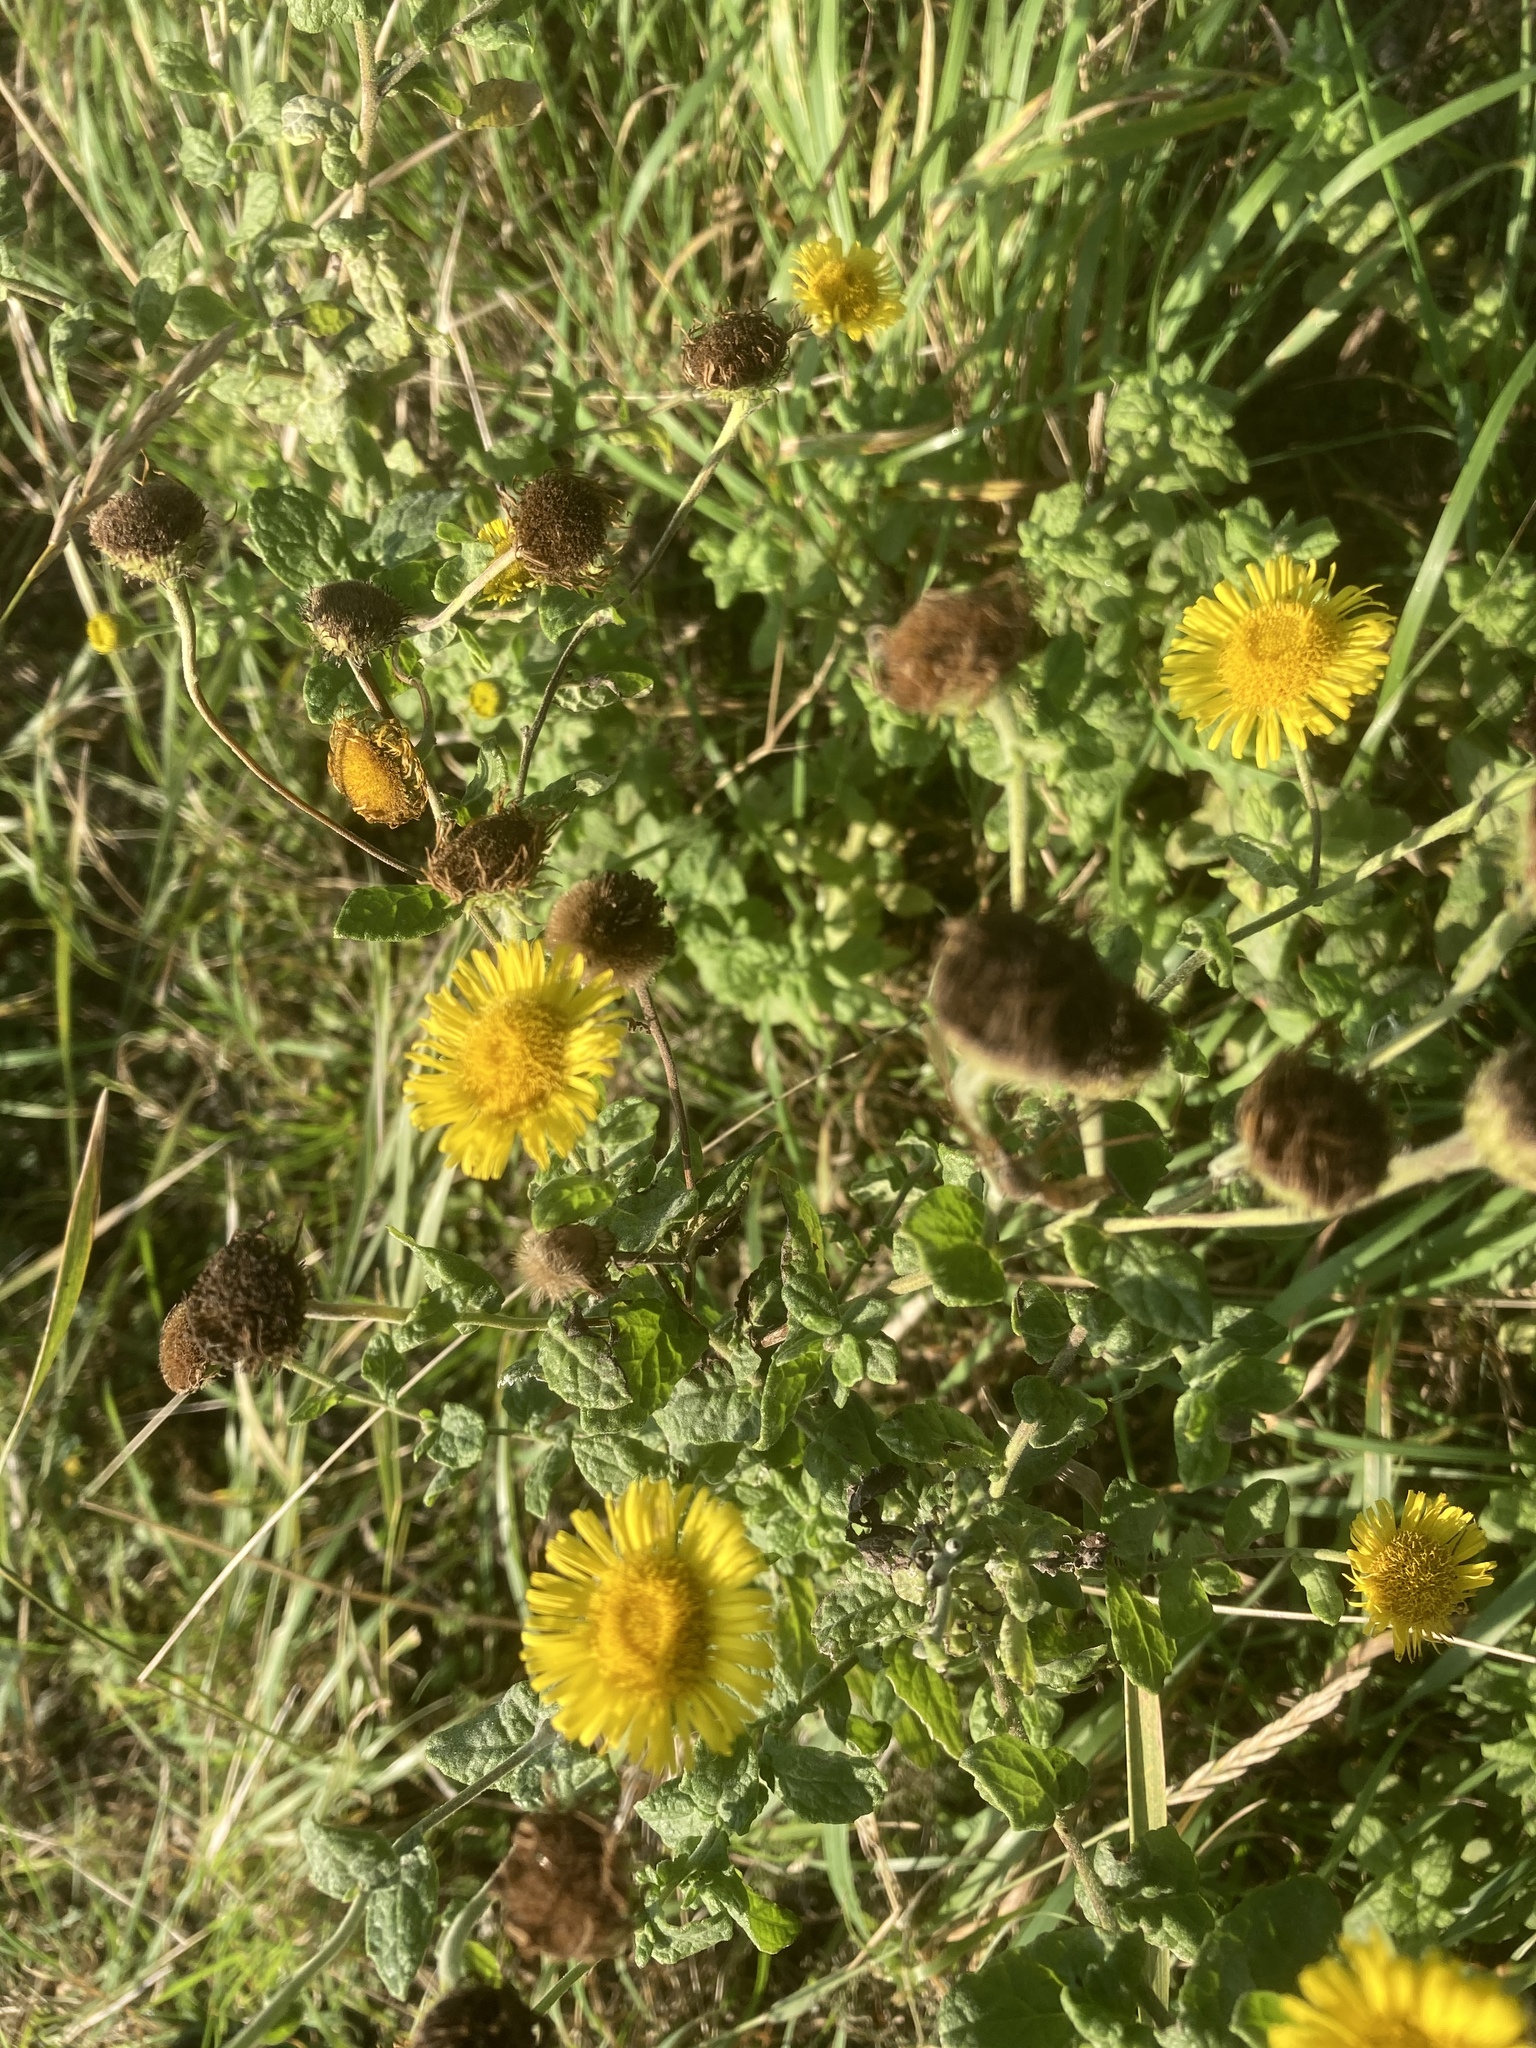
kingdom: Plantae
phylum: Tracheophyta
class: Magnoliopsida
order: Asterales
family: Asteraceae
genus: Pulicaria
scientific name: Pulicaria dysenterica
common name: Common fleabane
